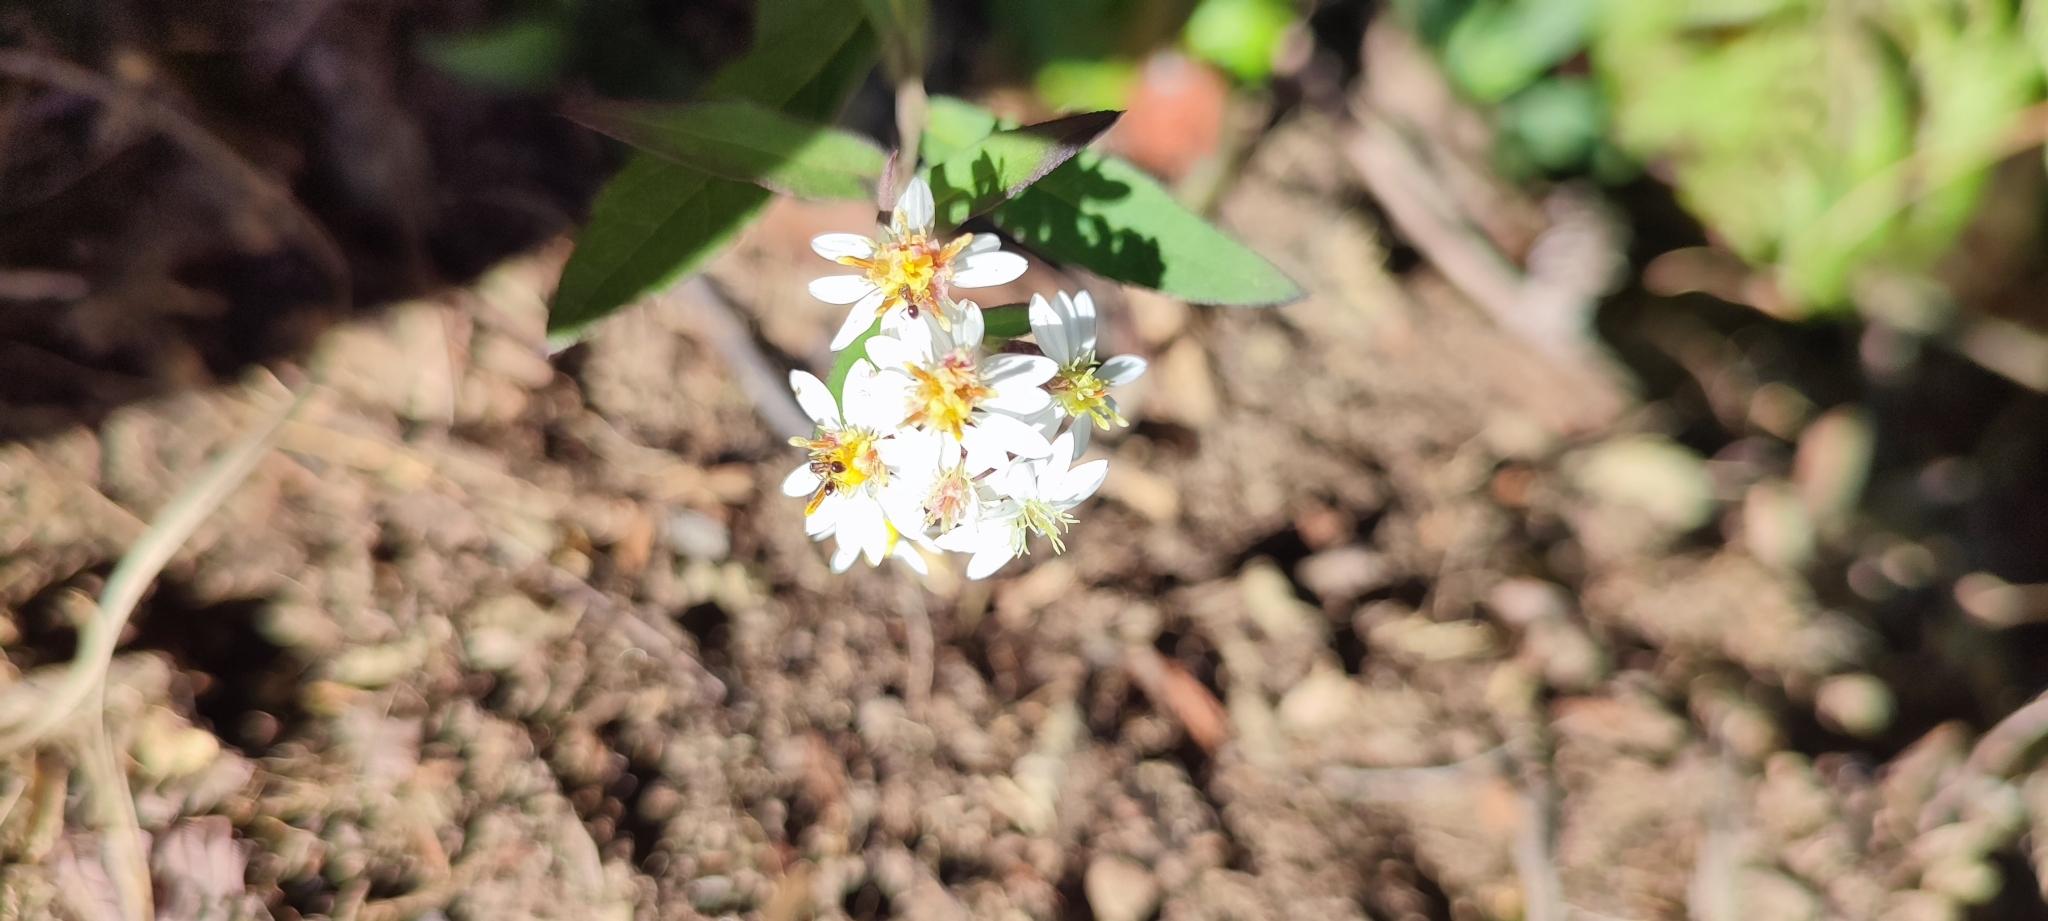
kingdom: Plantae
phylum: Tracheophyta
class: Magnoliopsida
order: Asterales
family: Asteraceae
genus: Aster
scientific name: Aster taiwanensis
